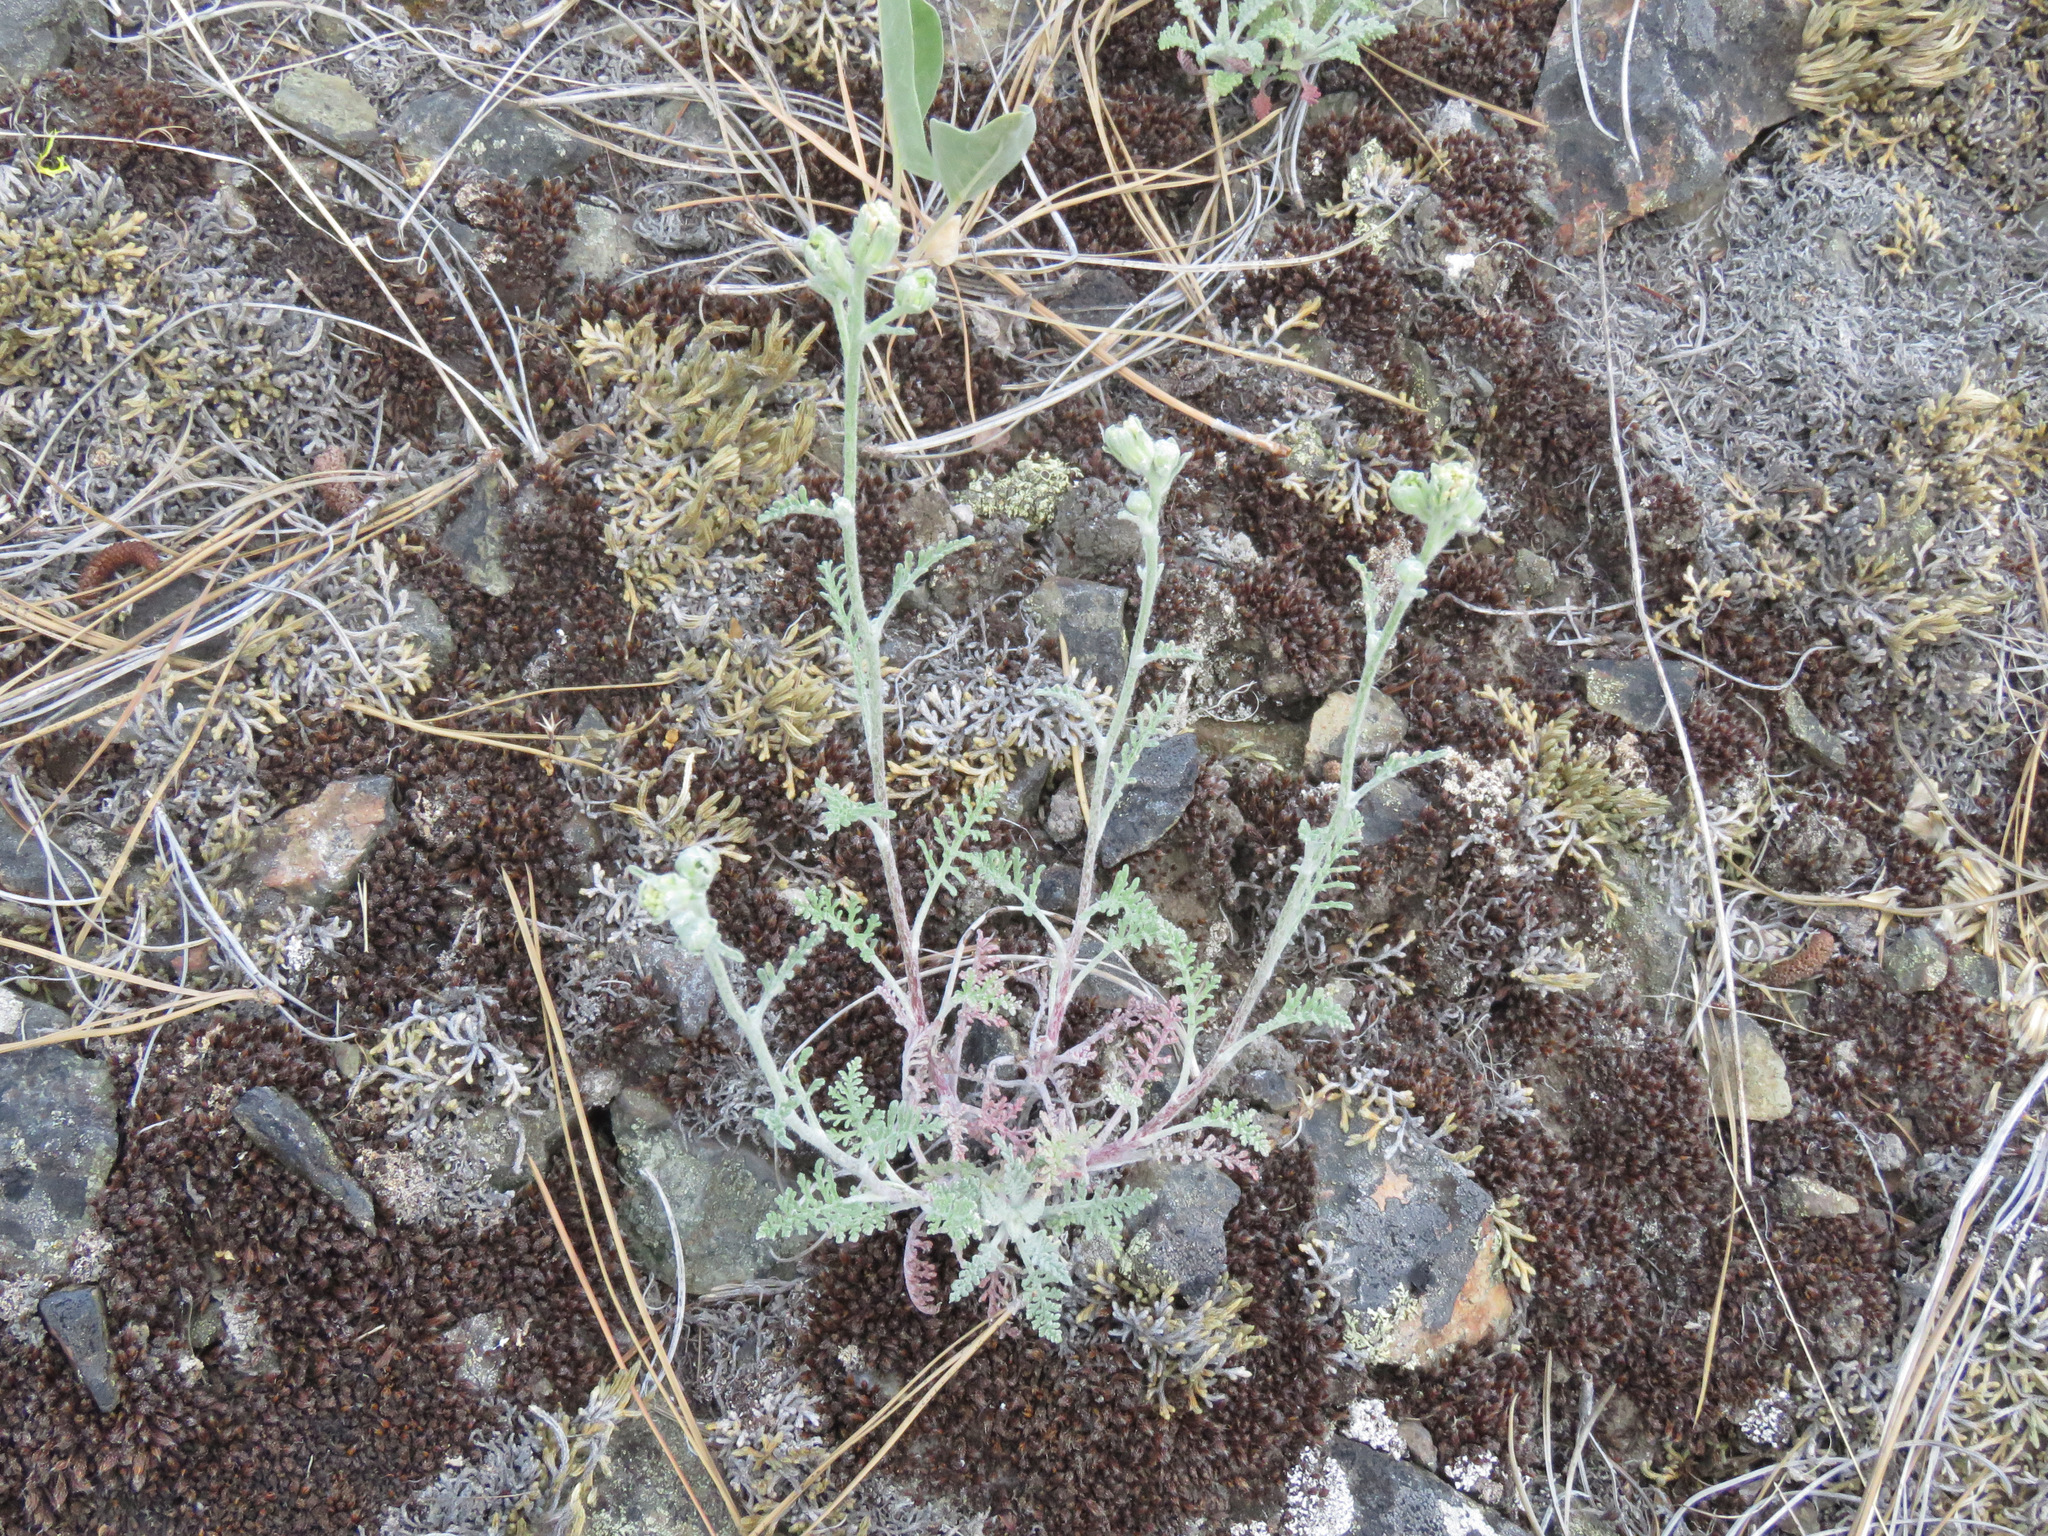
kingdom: Plantae
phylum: Tracheophyta
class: Magnoliopsida
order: Asterales
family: Asteraceae
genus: Chaenactis
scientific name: Chaenactis douglasii
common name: Hoary pincushion
